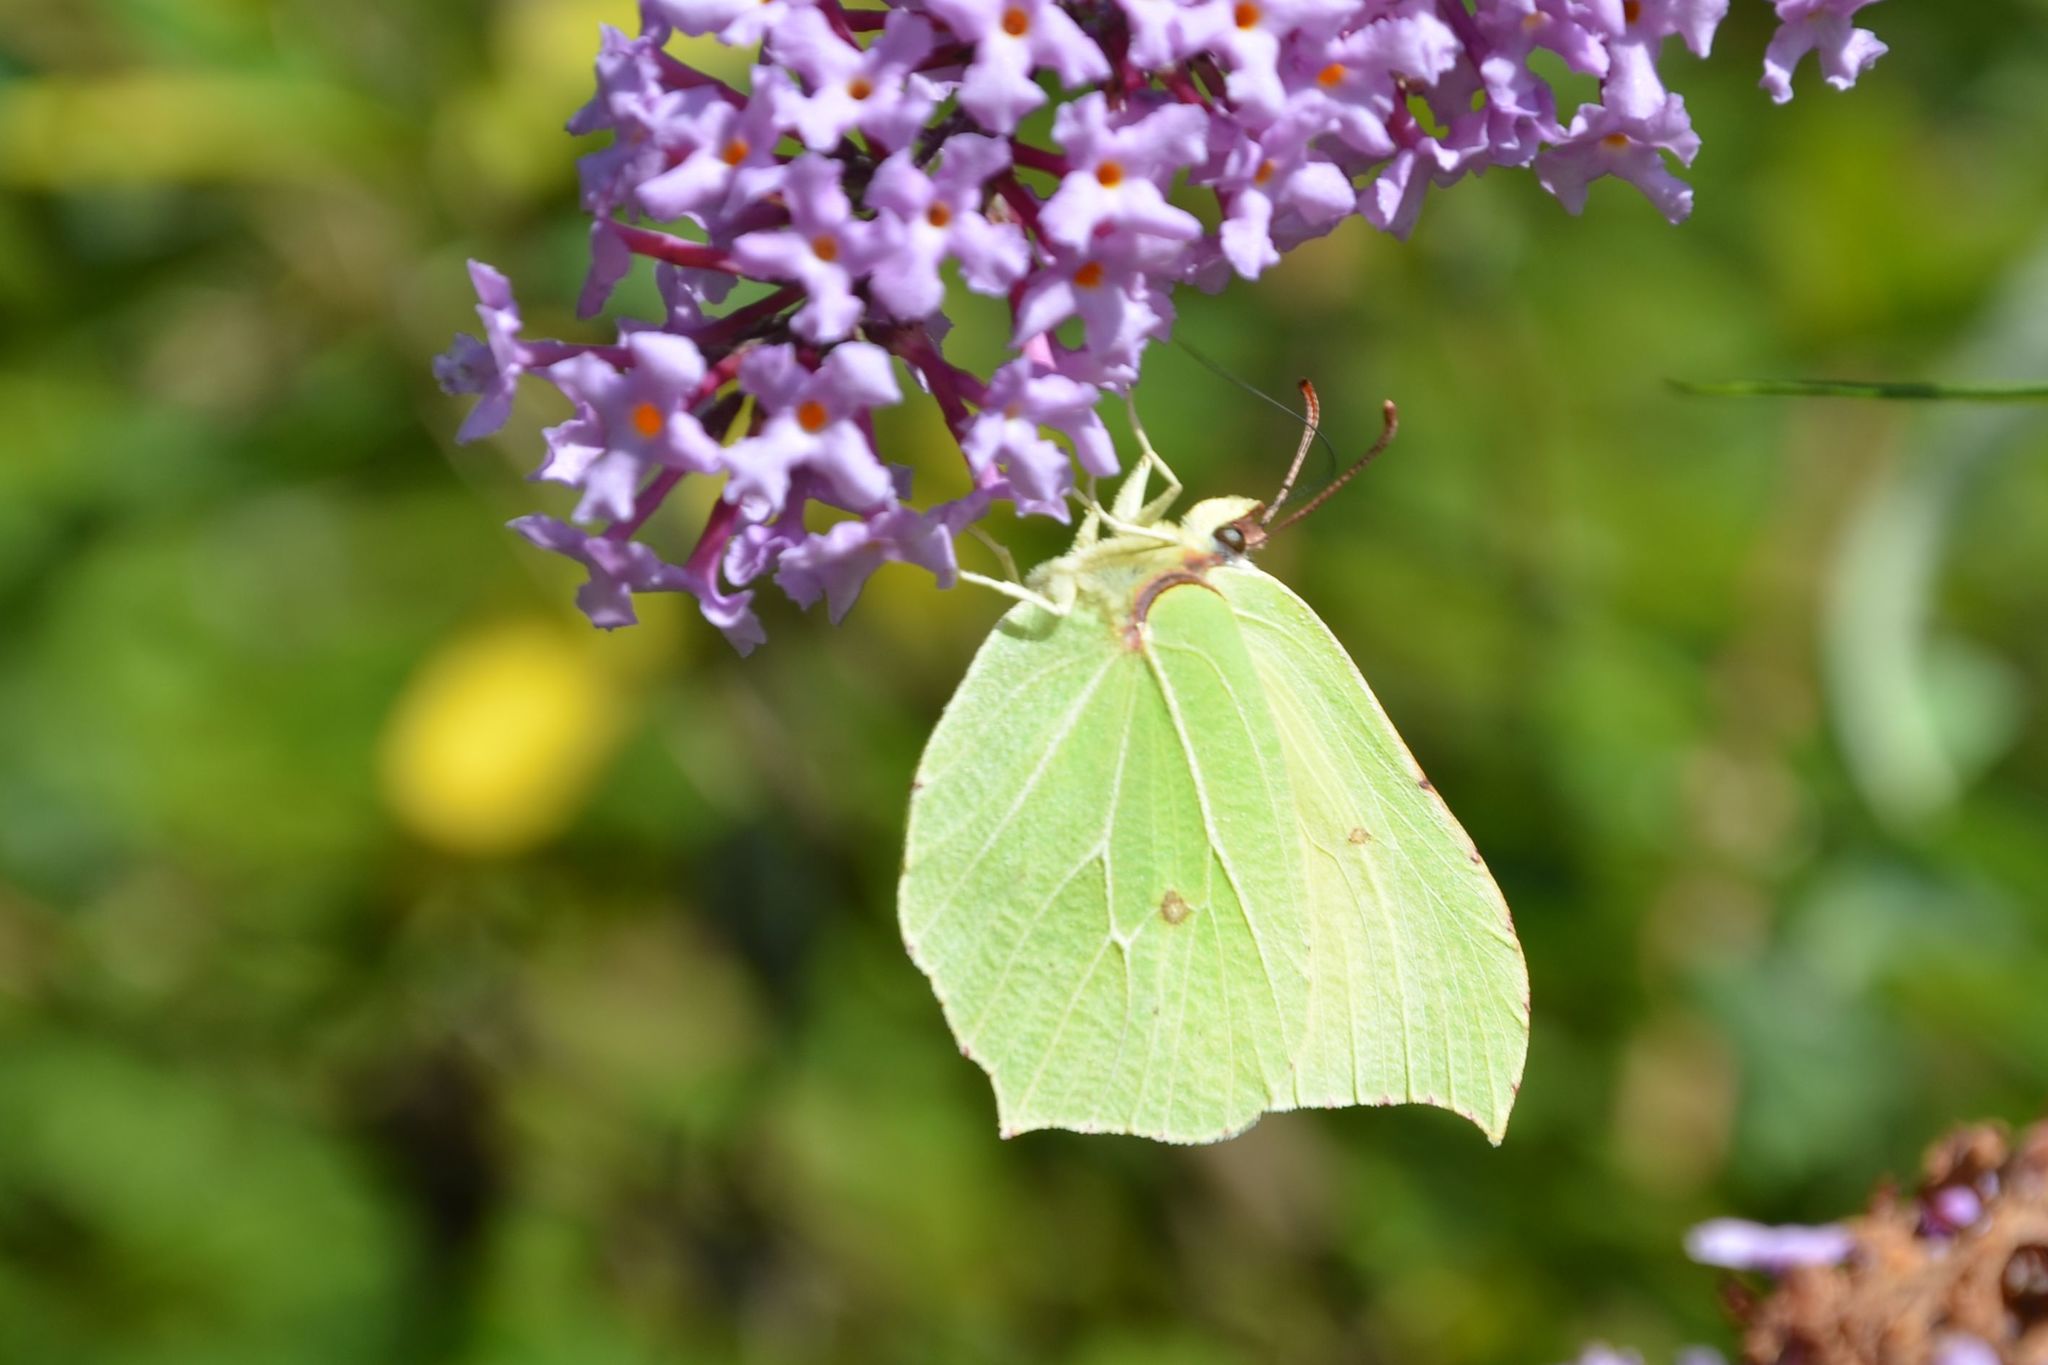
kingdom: Animalia
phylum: Arthropoda
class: Insecta
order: Lepidoptera
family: Pieridae
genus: Gonepteryx
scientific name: Gonepteryx rhamni
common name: Brimstone
